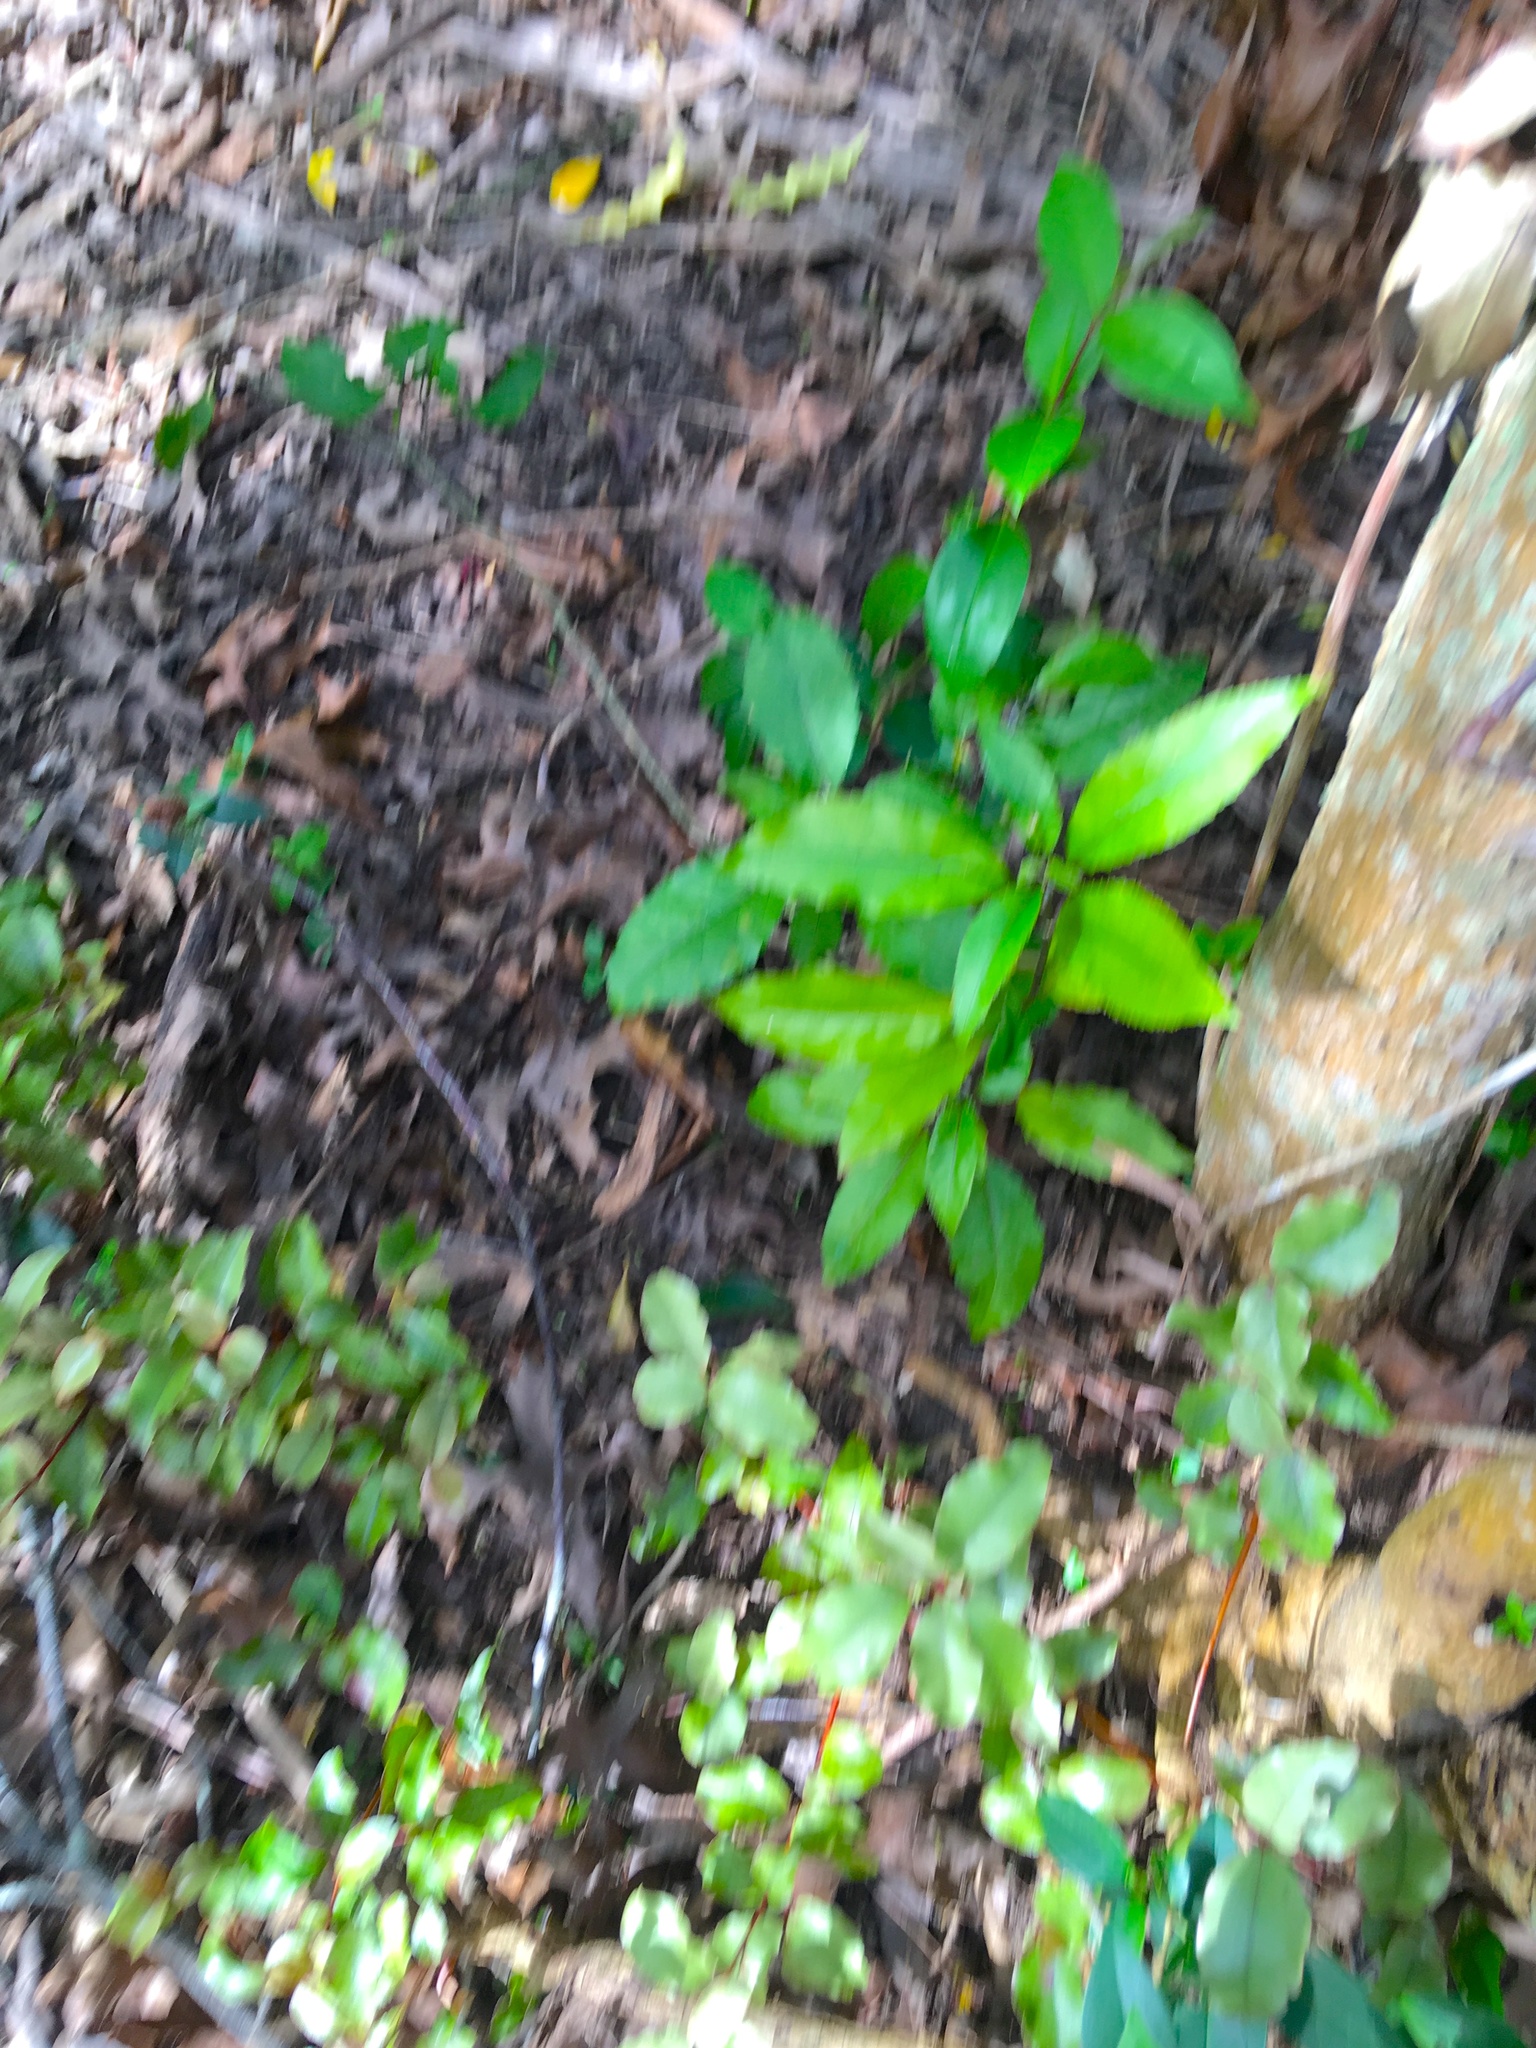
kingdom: Plantae
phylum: Tracheophyta
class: Magnoliopsida
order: Malpighiales
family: Violaceae
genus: Melicytus
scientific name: Melicytus ramiflorus
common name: Mahoe
